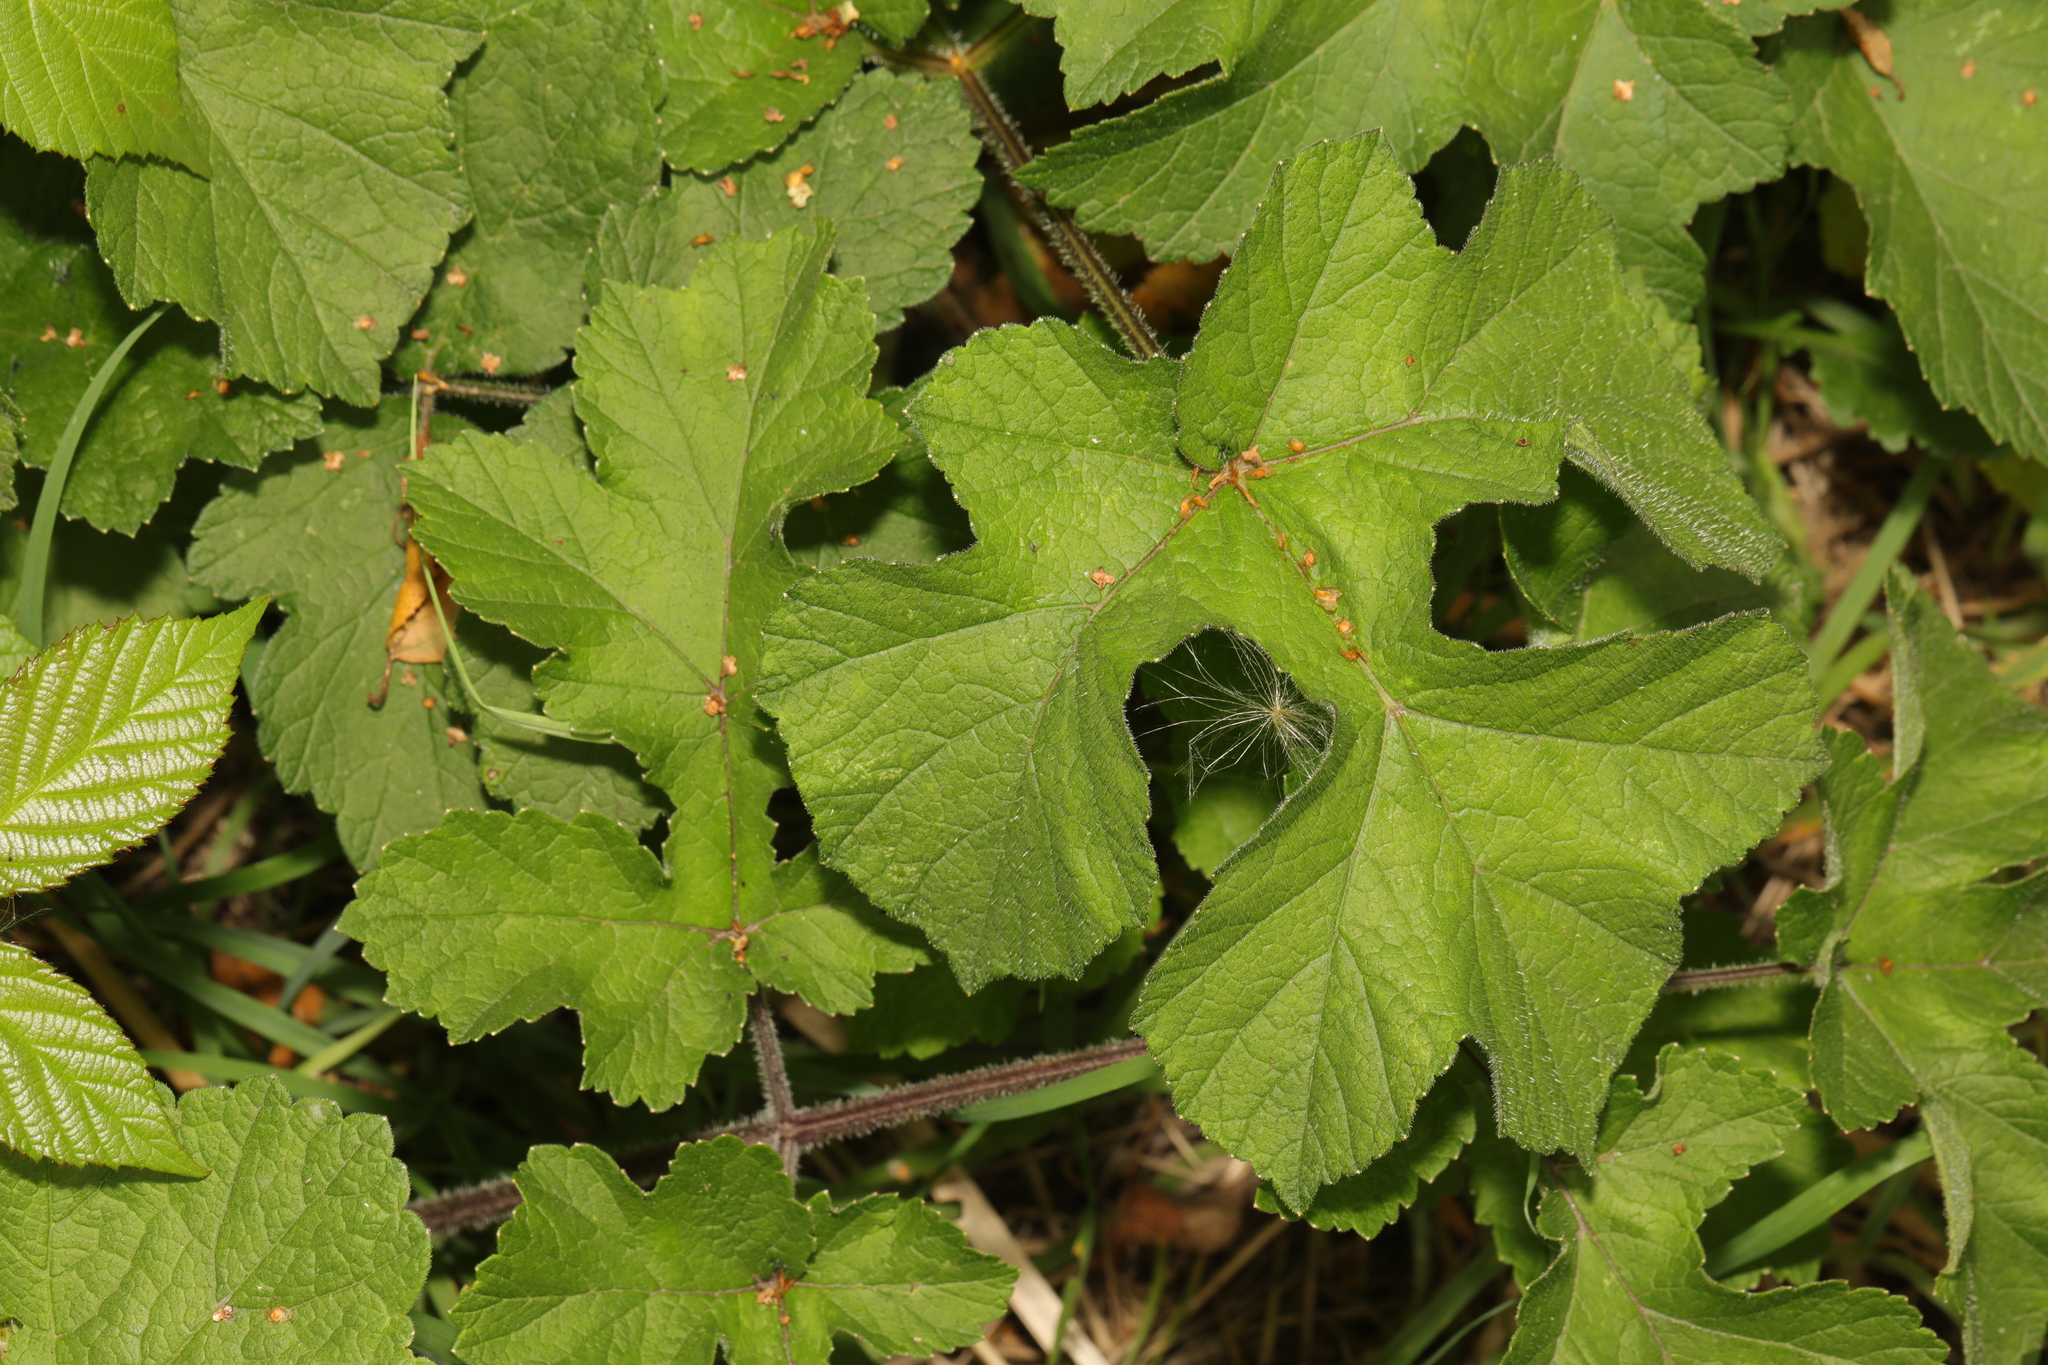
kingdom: Plantae
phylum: Tracheophyta
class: Magnoliopsida
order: Apiales
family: Apiaceae
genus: Heracleum
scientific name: Heracleum sphondylium
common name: Hogweed
